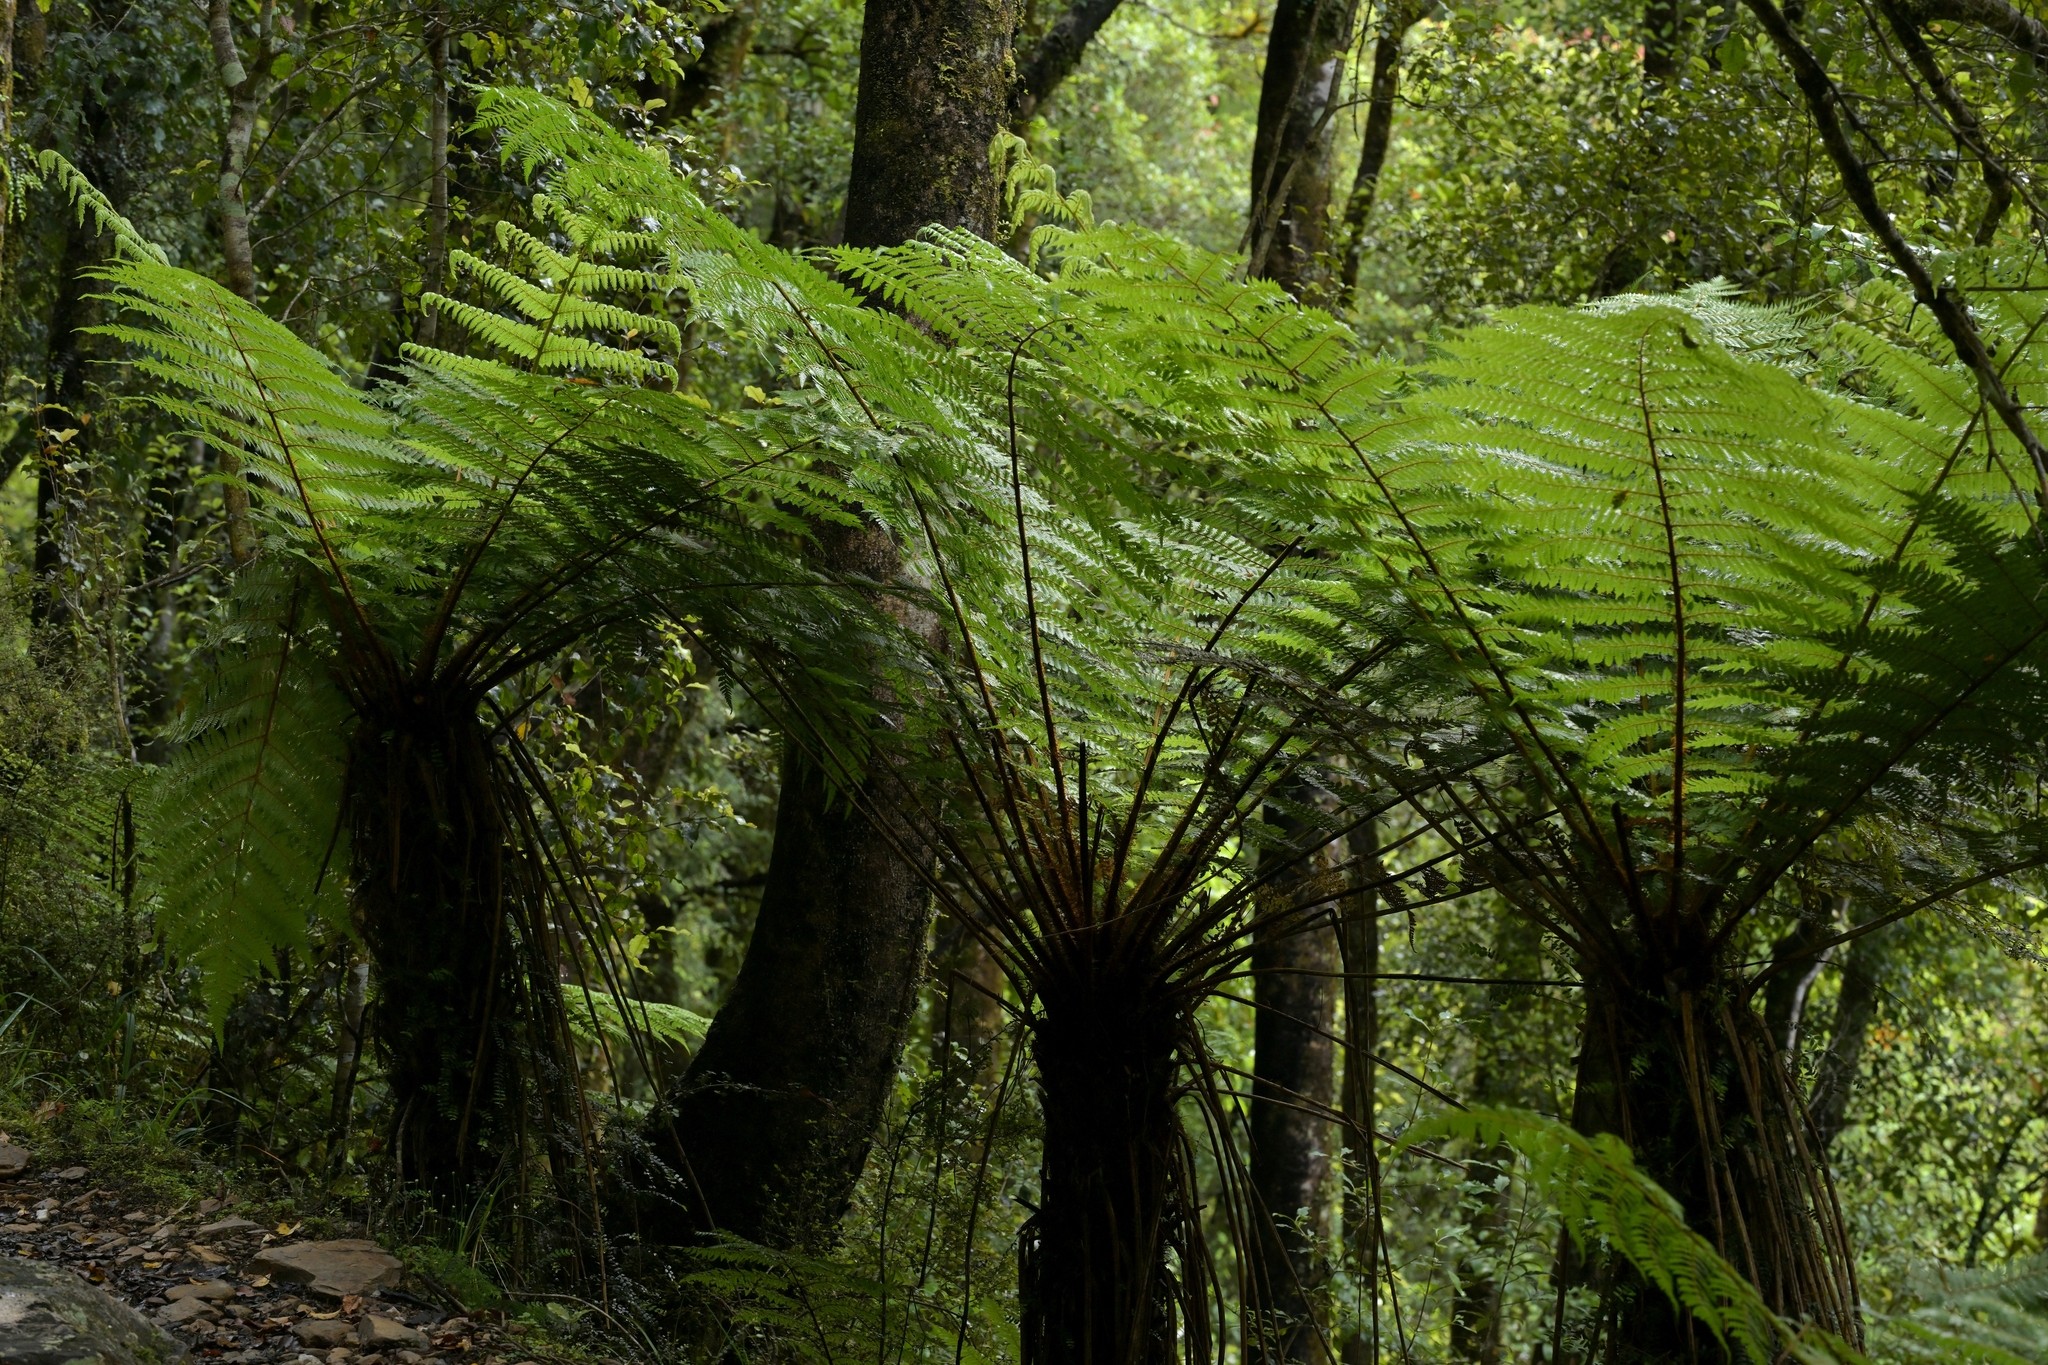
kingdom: Plantae
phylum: Tracheophyta
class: Polypodiopsida
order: Cyatheales
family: Cyatheaceae
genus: Alsophila
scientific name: Alsophila smithii
